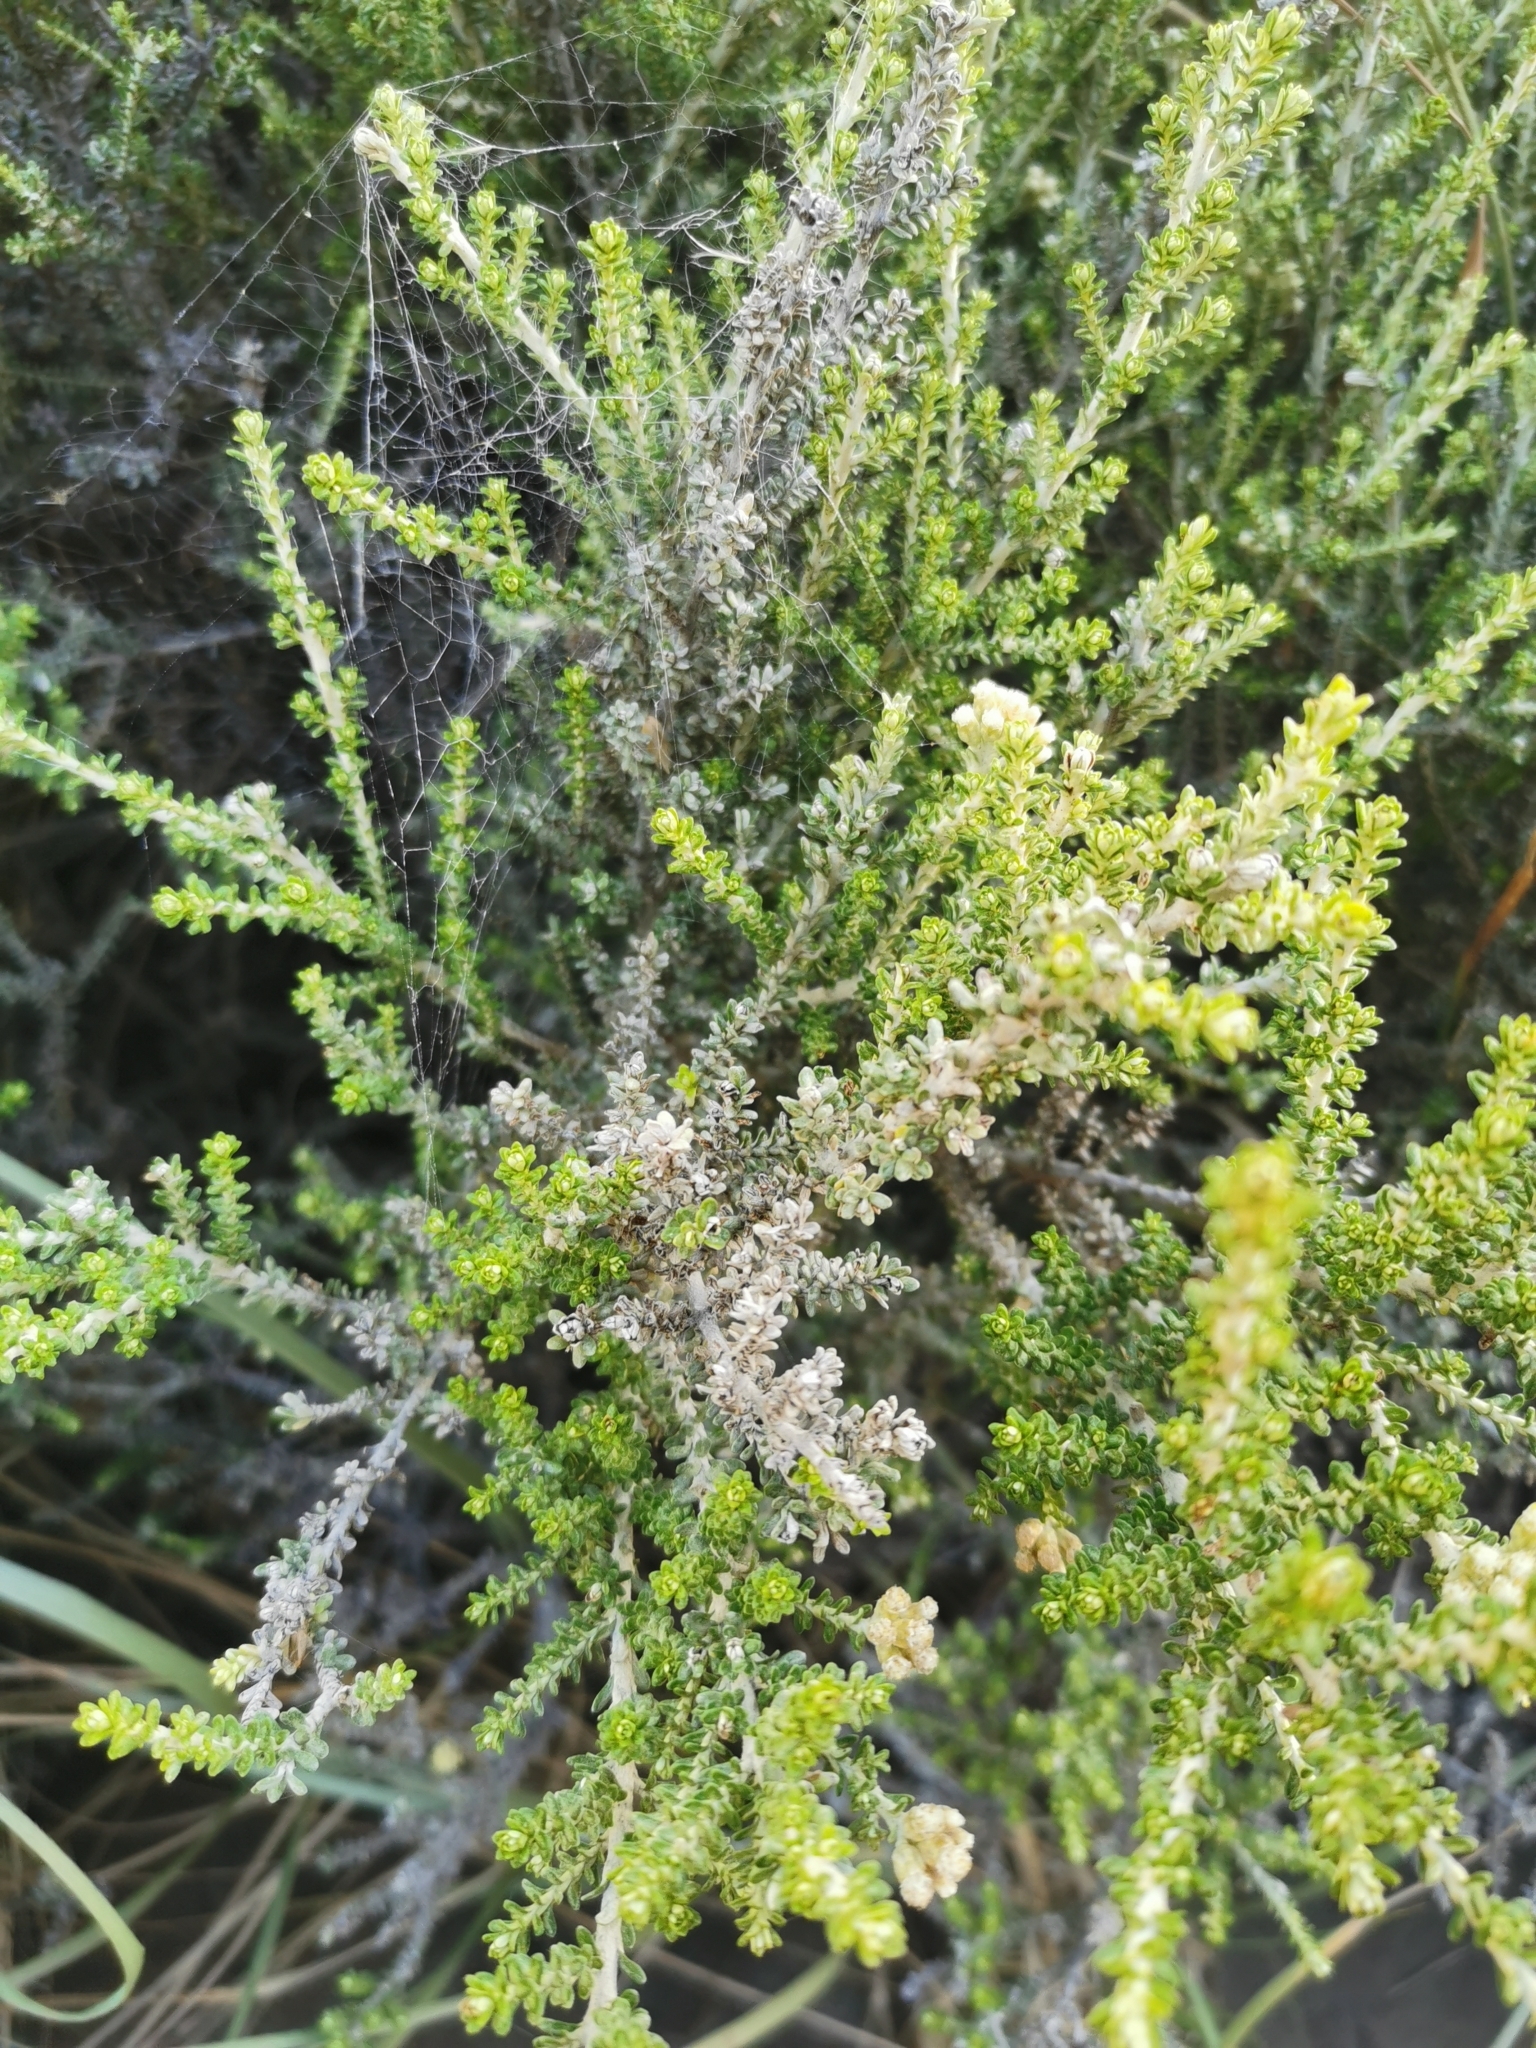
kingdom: Plantae
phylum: Tracheophyta
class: Magnoliopsida
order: Asterales
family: Asteraceae
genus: Ozothamnus
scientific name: Ozothamnus leptophyllus
